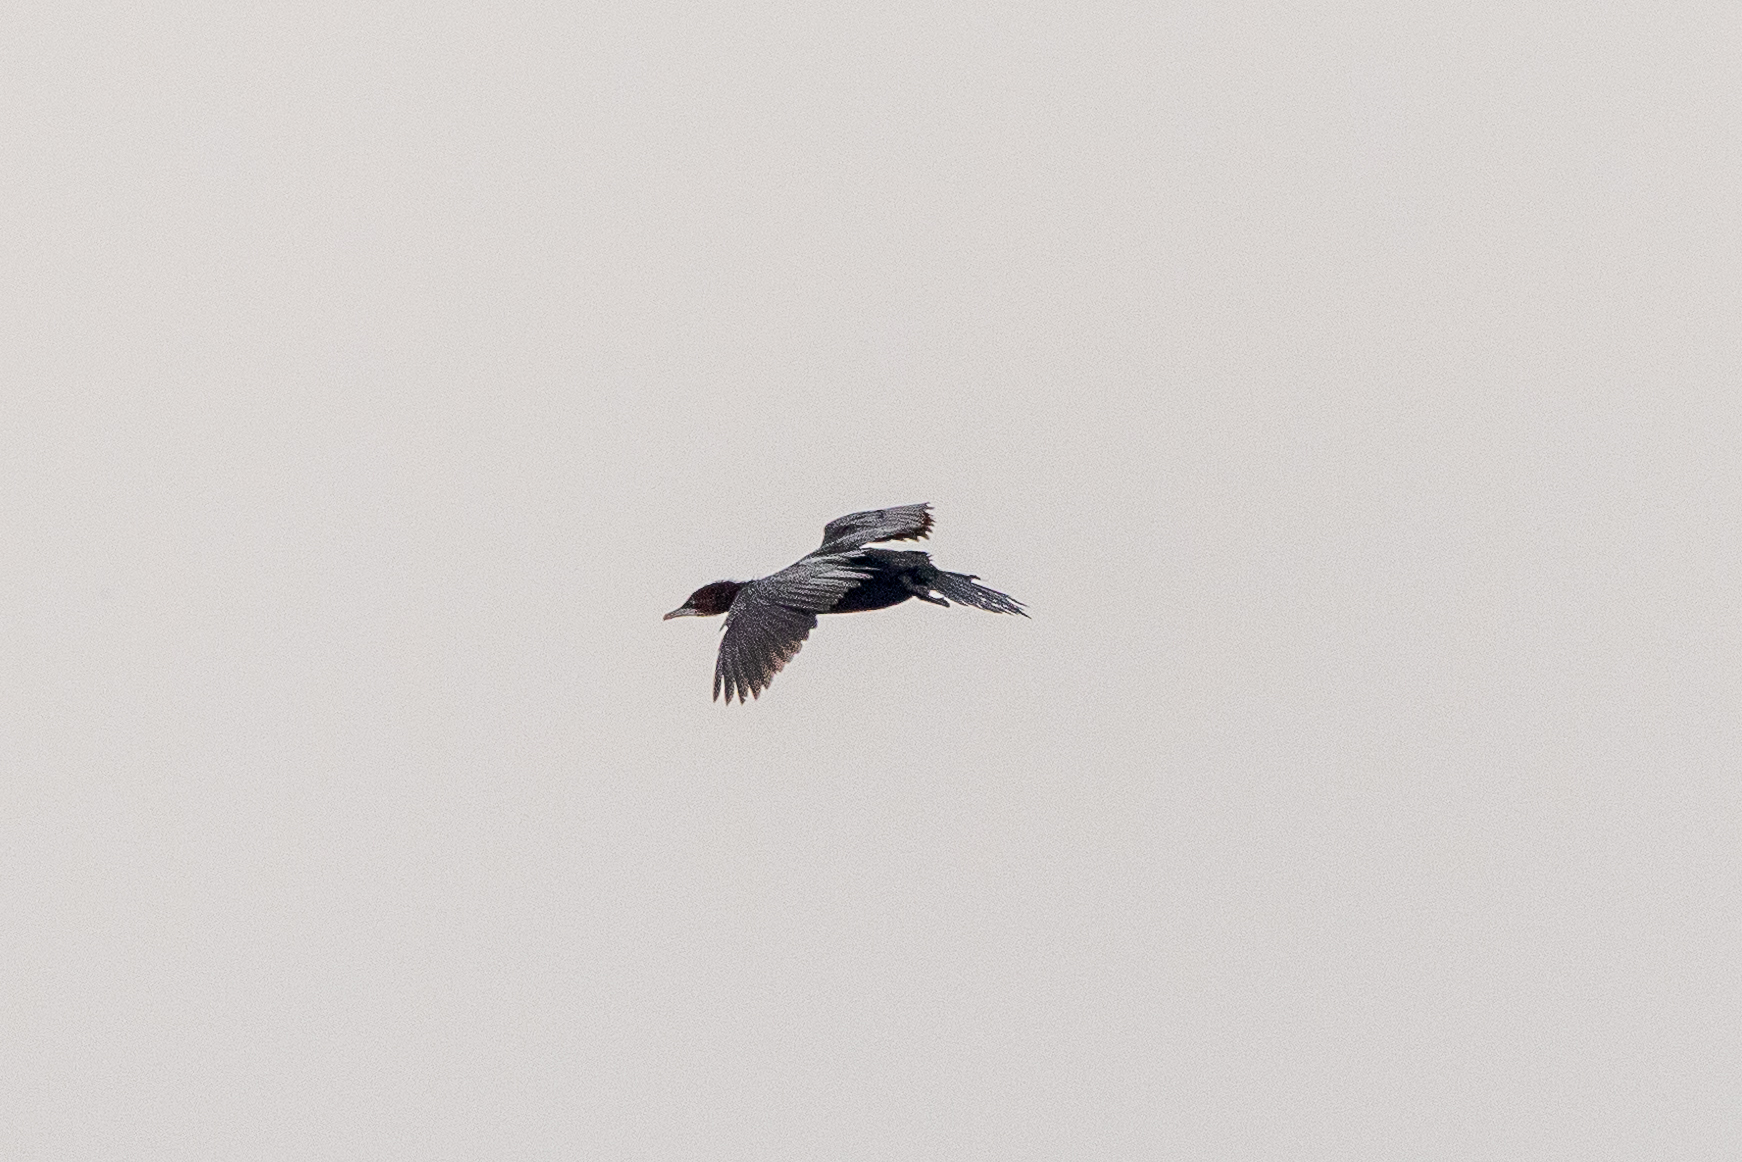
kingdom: Animalia
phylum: Chordata
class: Aves
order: Suliformes
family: Phalacrocoracidae
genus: Microcarbo
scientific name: Microcarbo pygmaeus
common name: Pygmy cormorant
